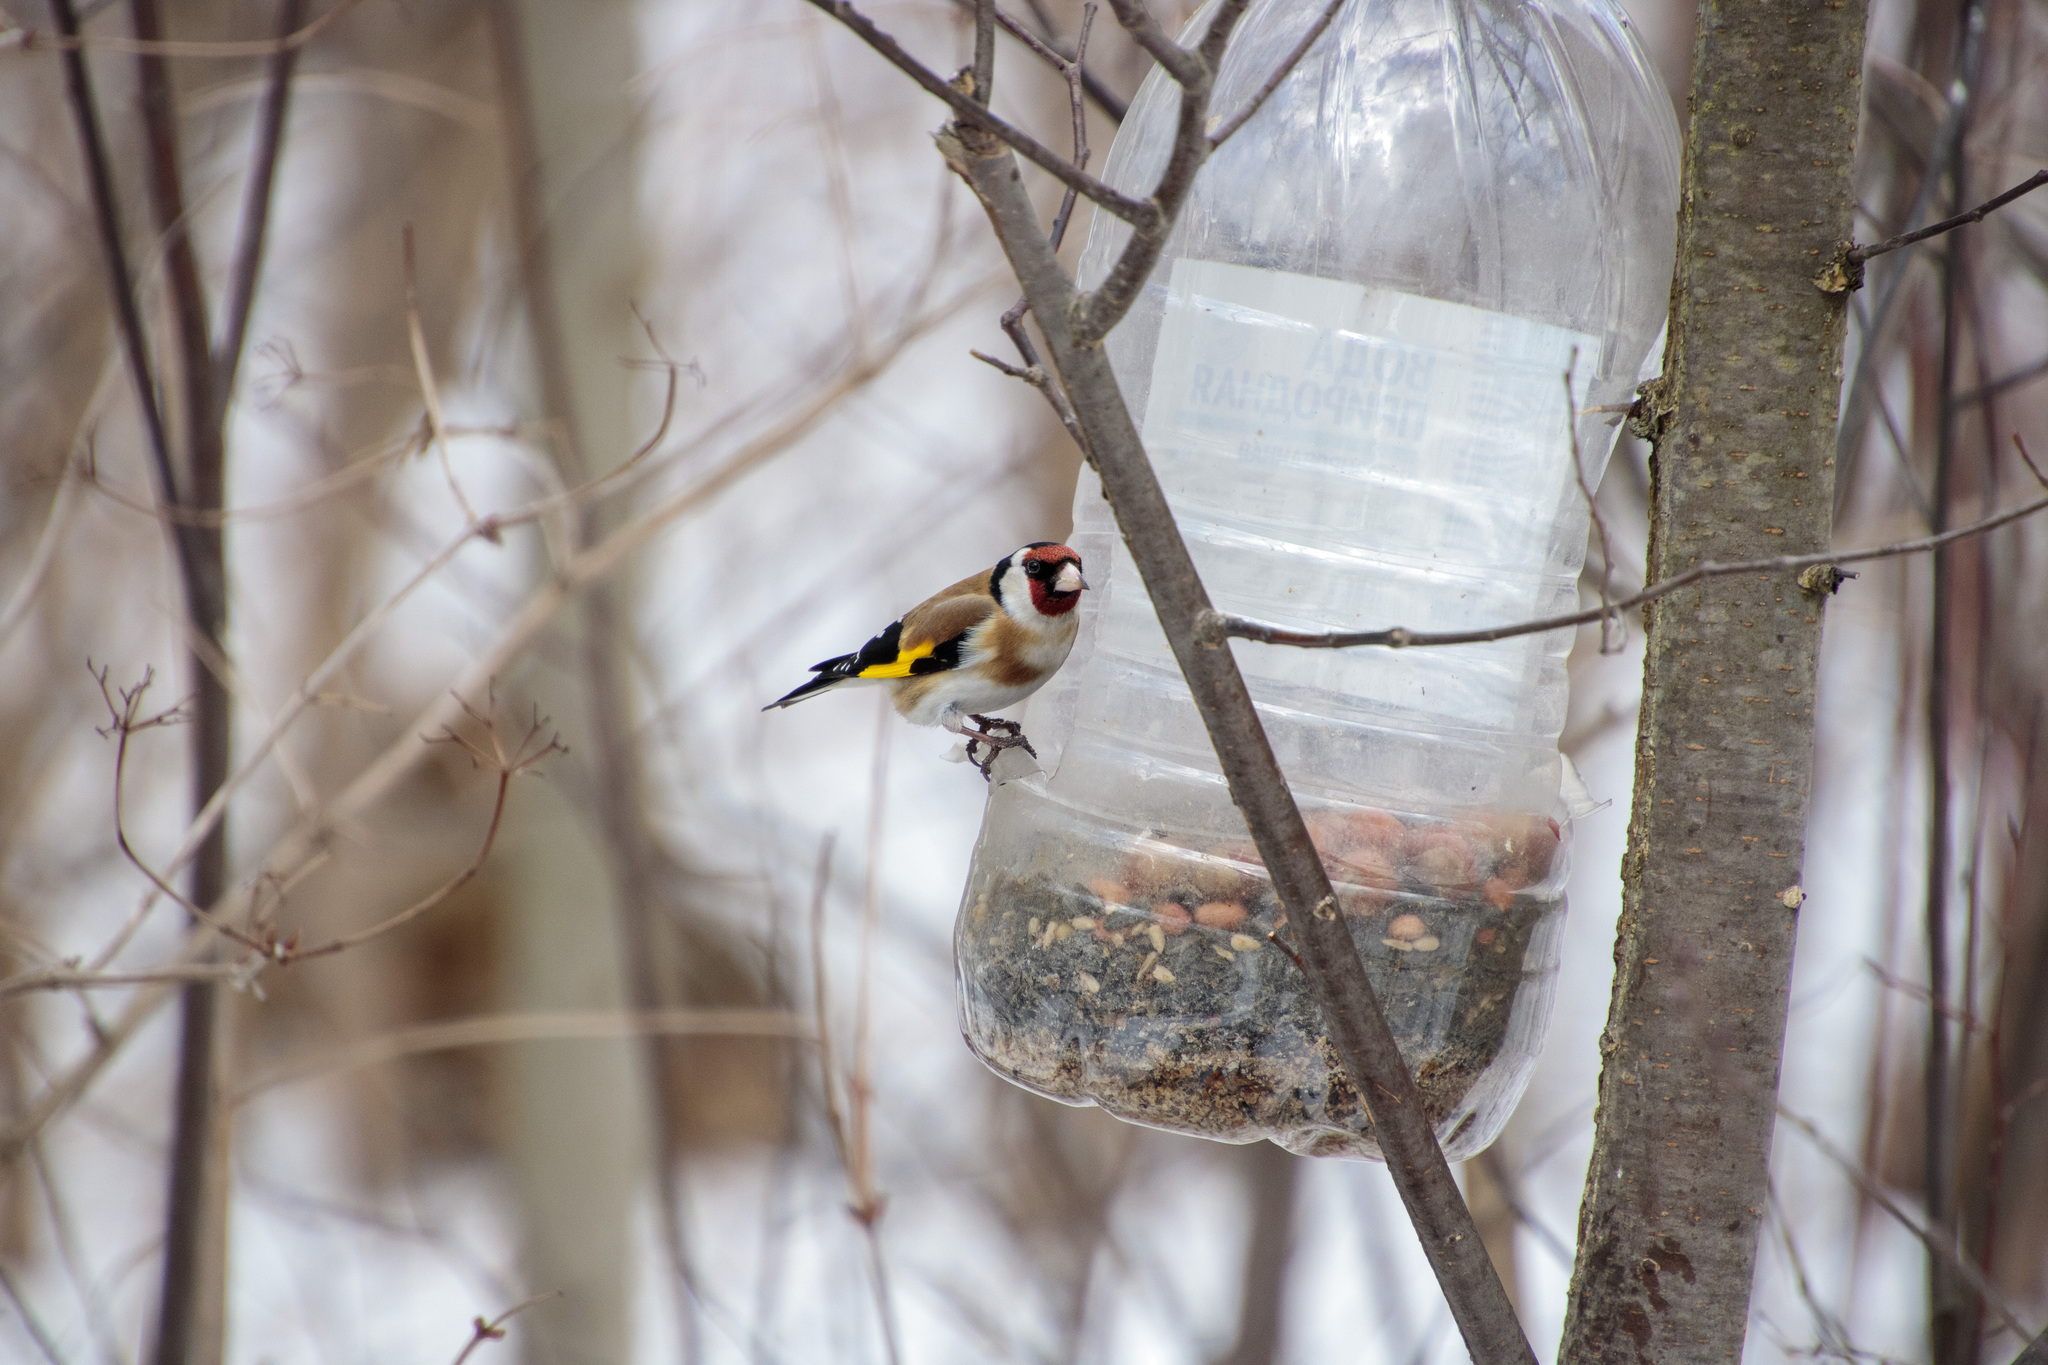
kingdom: Animalia
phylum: Chordata
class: Aves
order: Passeriformes
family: Fringillidae
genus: Carduelis
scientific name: Carduelis carduelis
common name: European goldfinch
